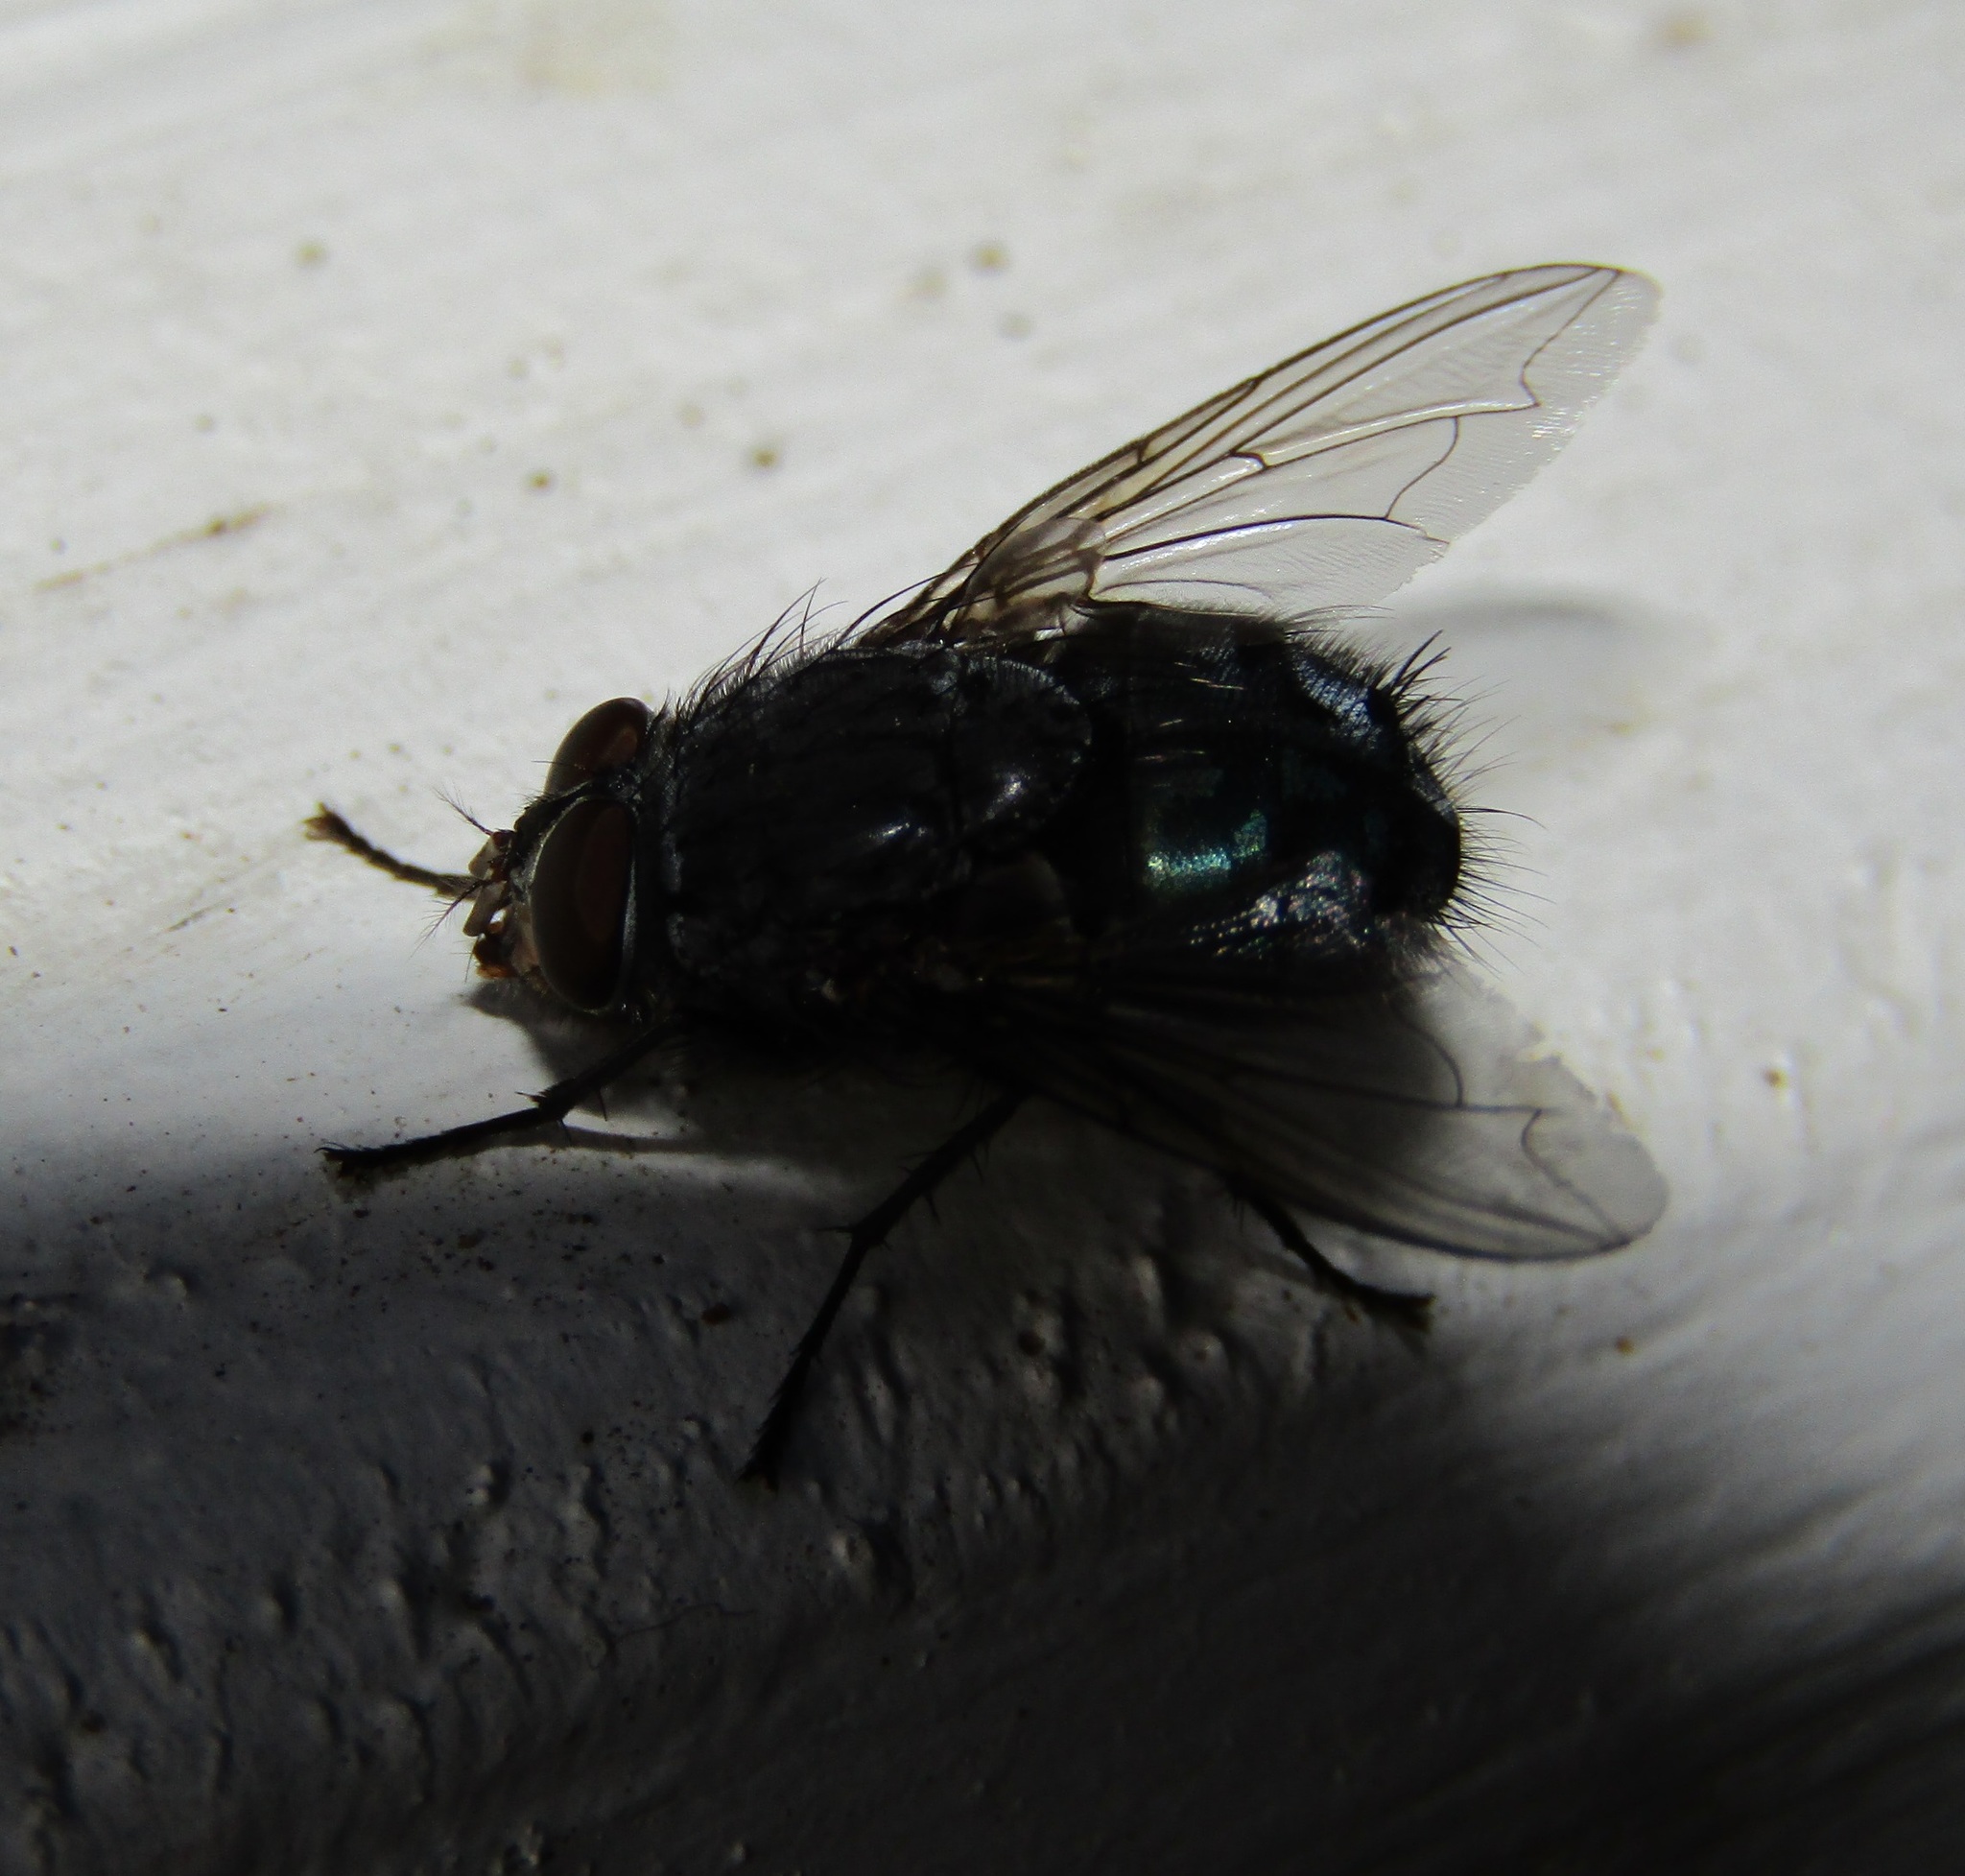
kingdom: Animalia
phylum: Arthropoda
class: Insecta
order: Diptera
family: Calliphoridae
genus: Calliphora
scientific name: Calliphora vicina
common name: Common blow flie
